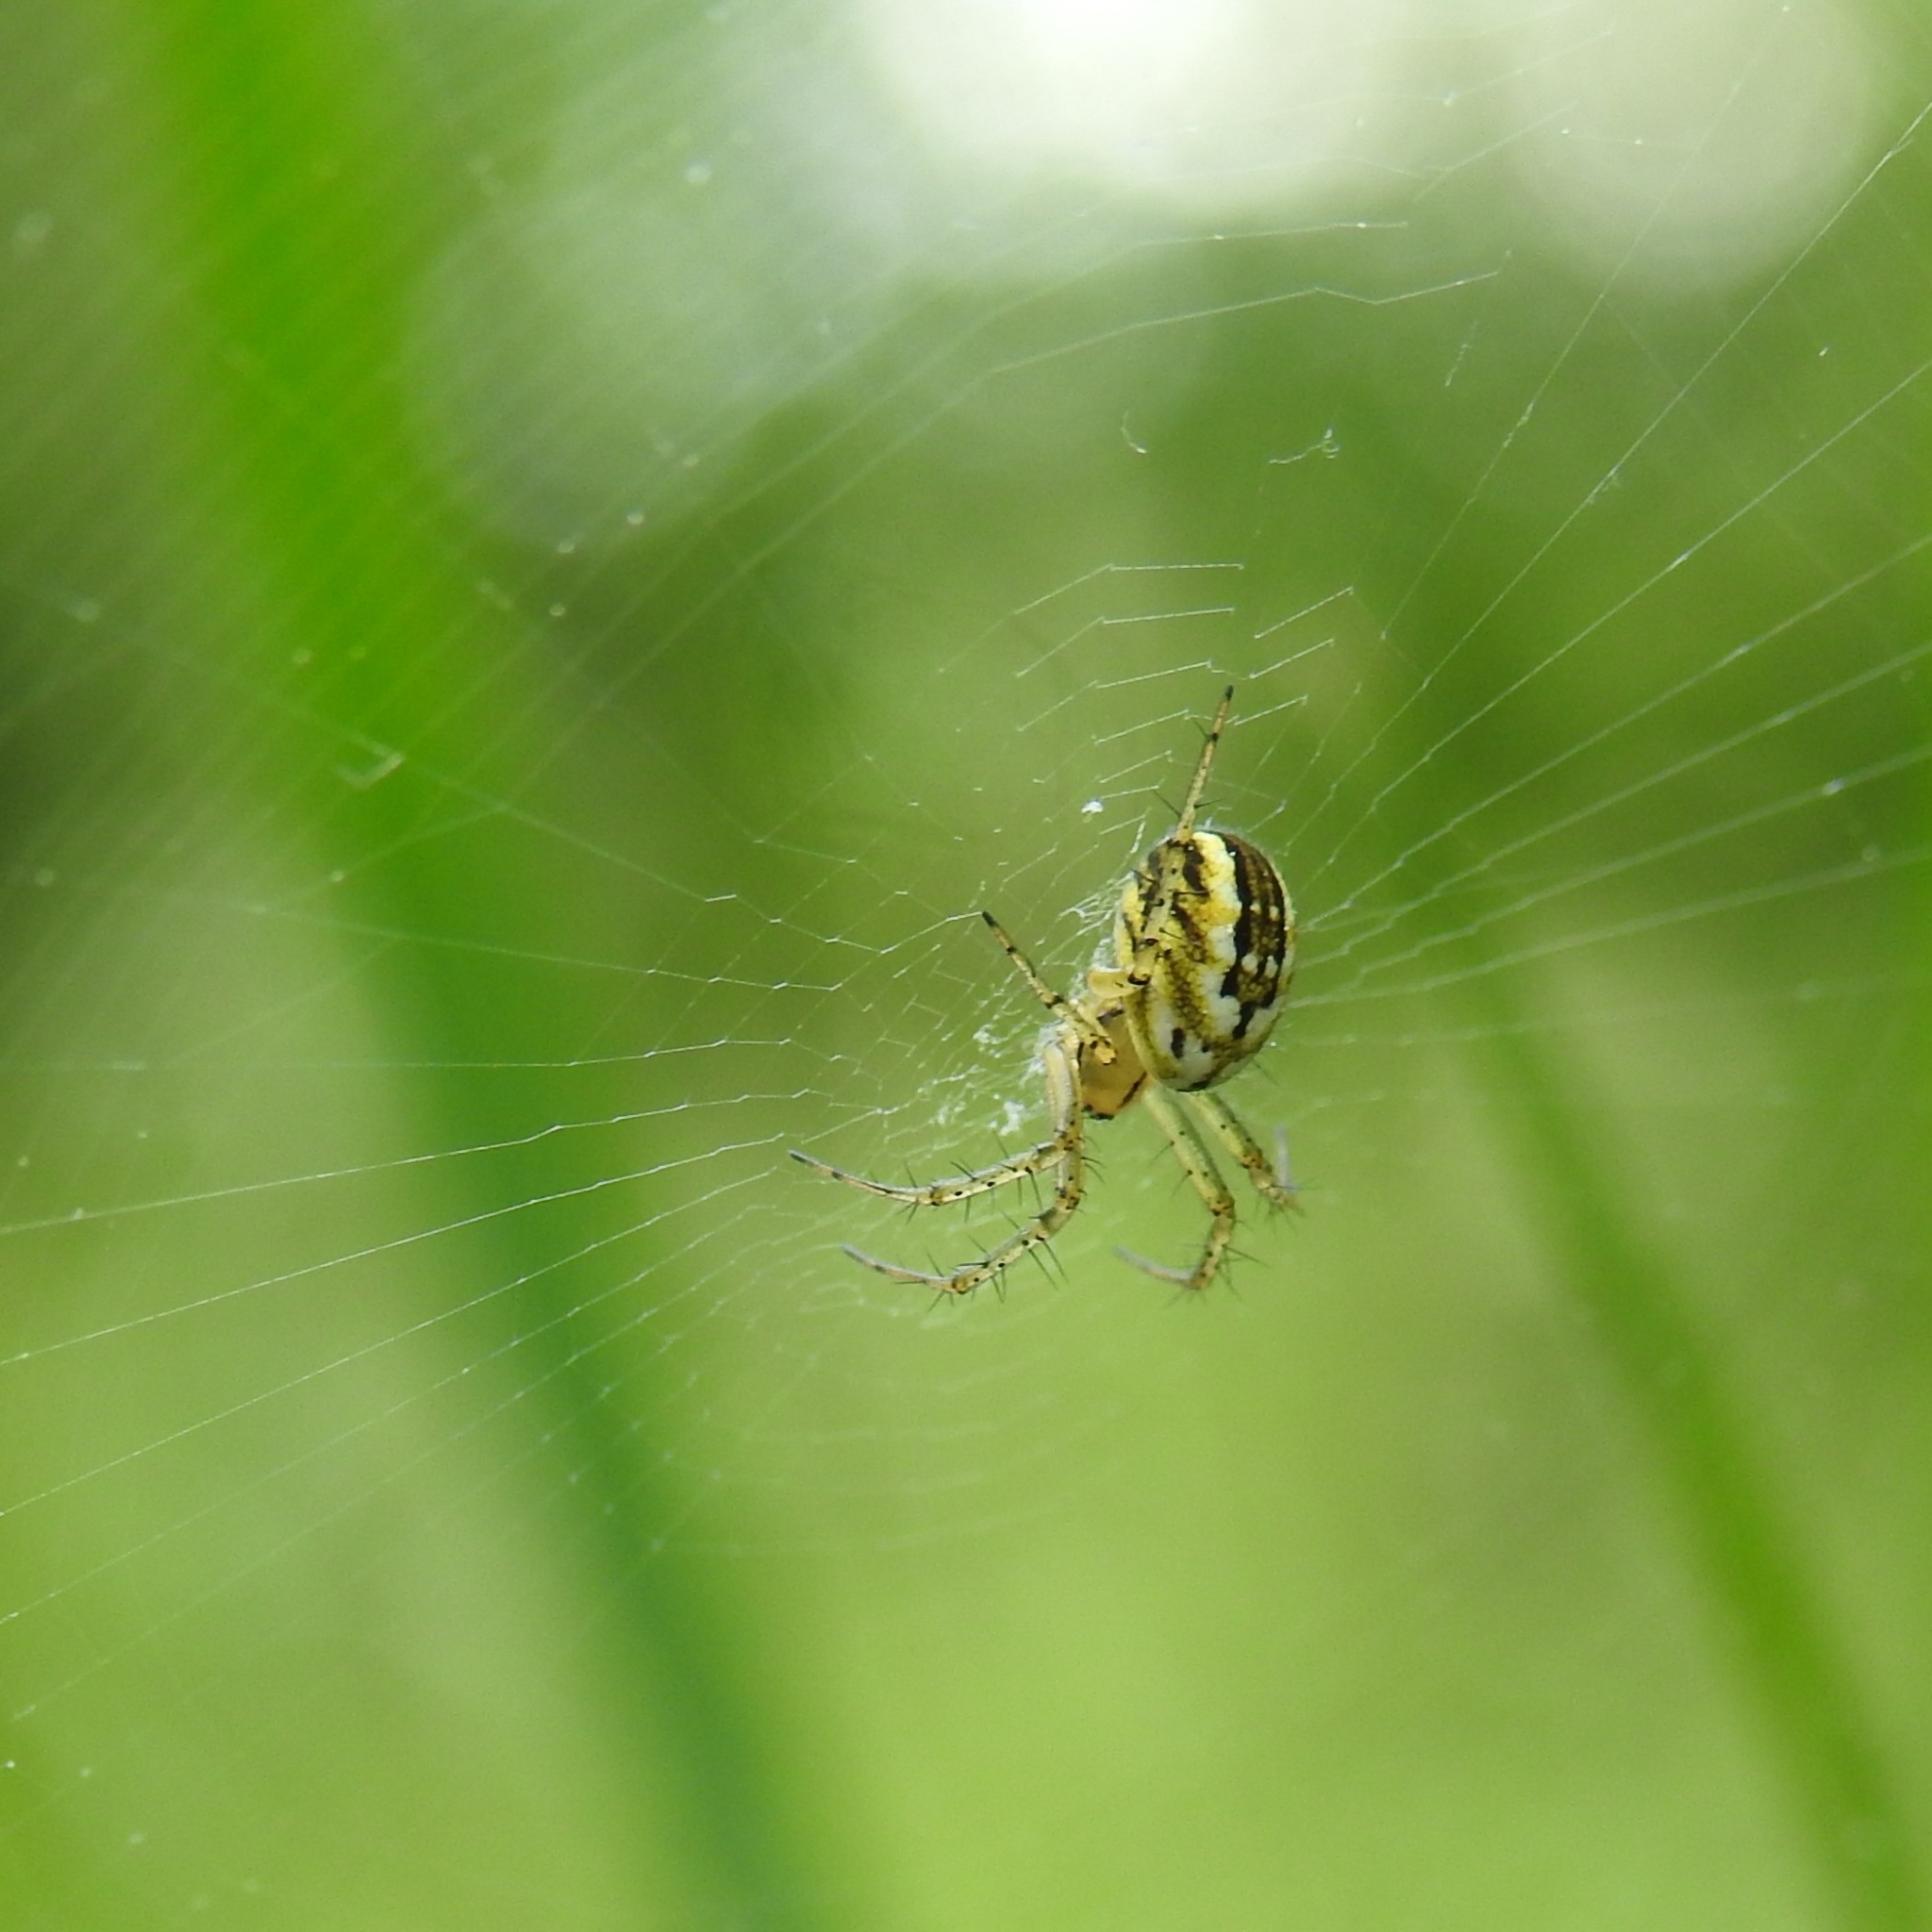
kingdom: Animalia
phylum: Arthropoda
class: Arachnida
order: Araneae
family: Araneidae
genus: Mangora
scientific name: Mangora acalypha
